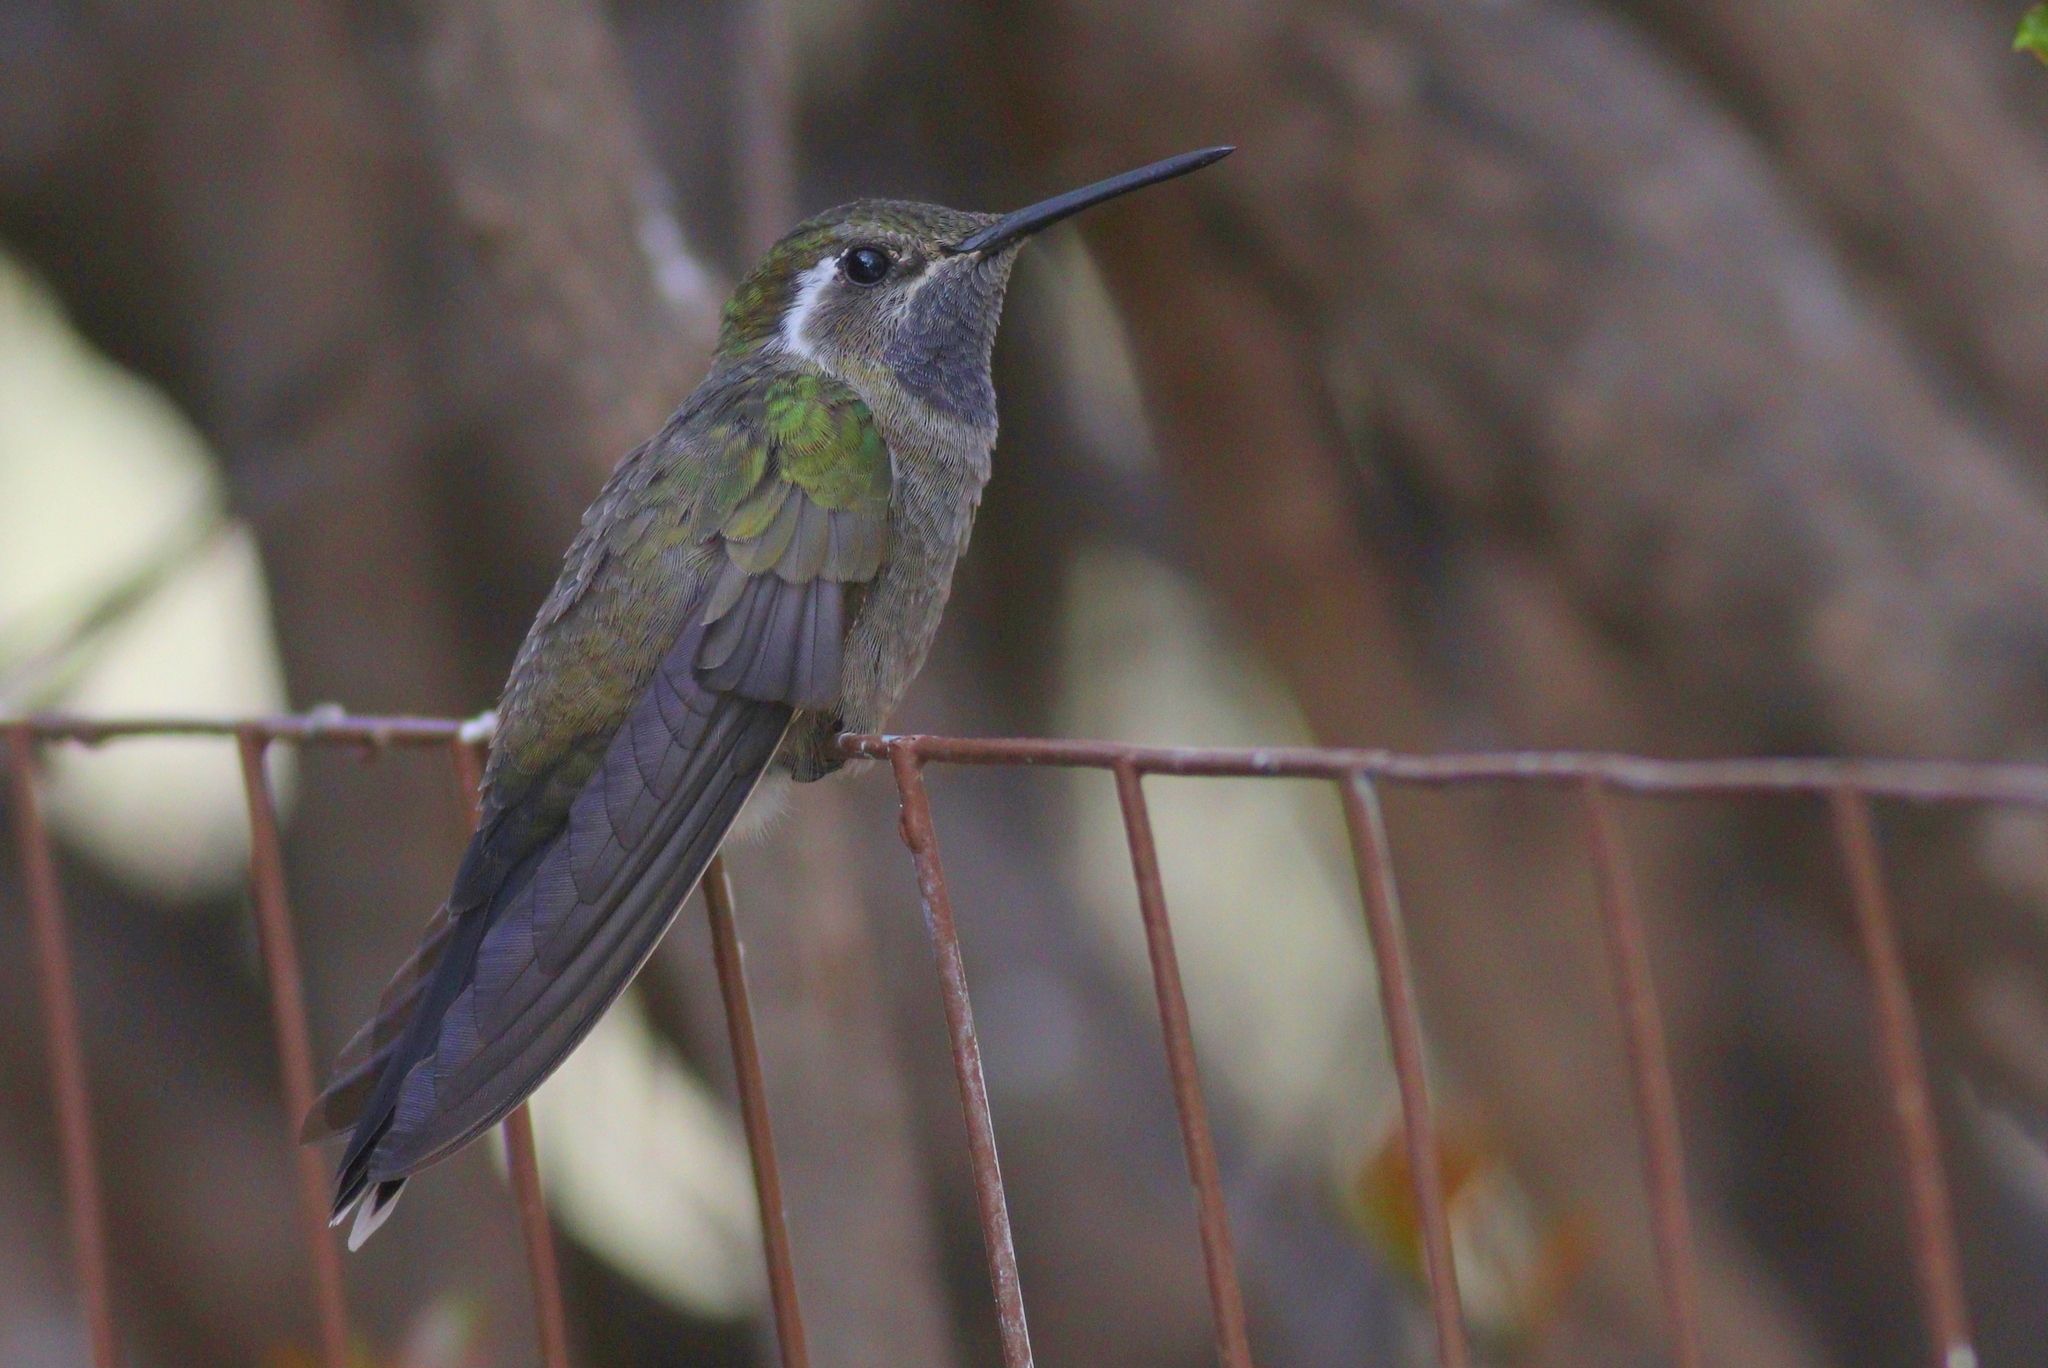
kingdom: Animalia
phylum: Chordata
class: Aves
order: Apodiformes
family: Trochilidae
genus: Lampornis
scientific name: Lampornis clemenciae
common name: Blue-throated mountaingem
